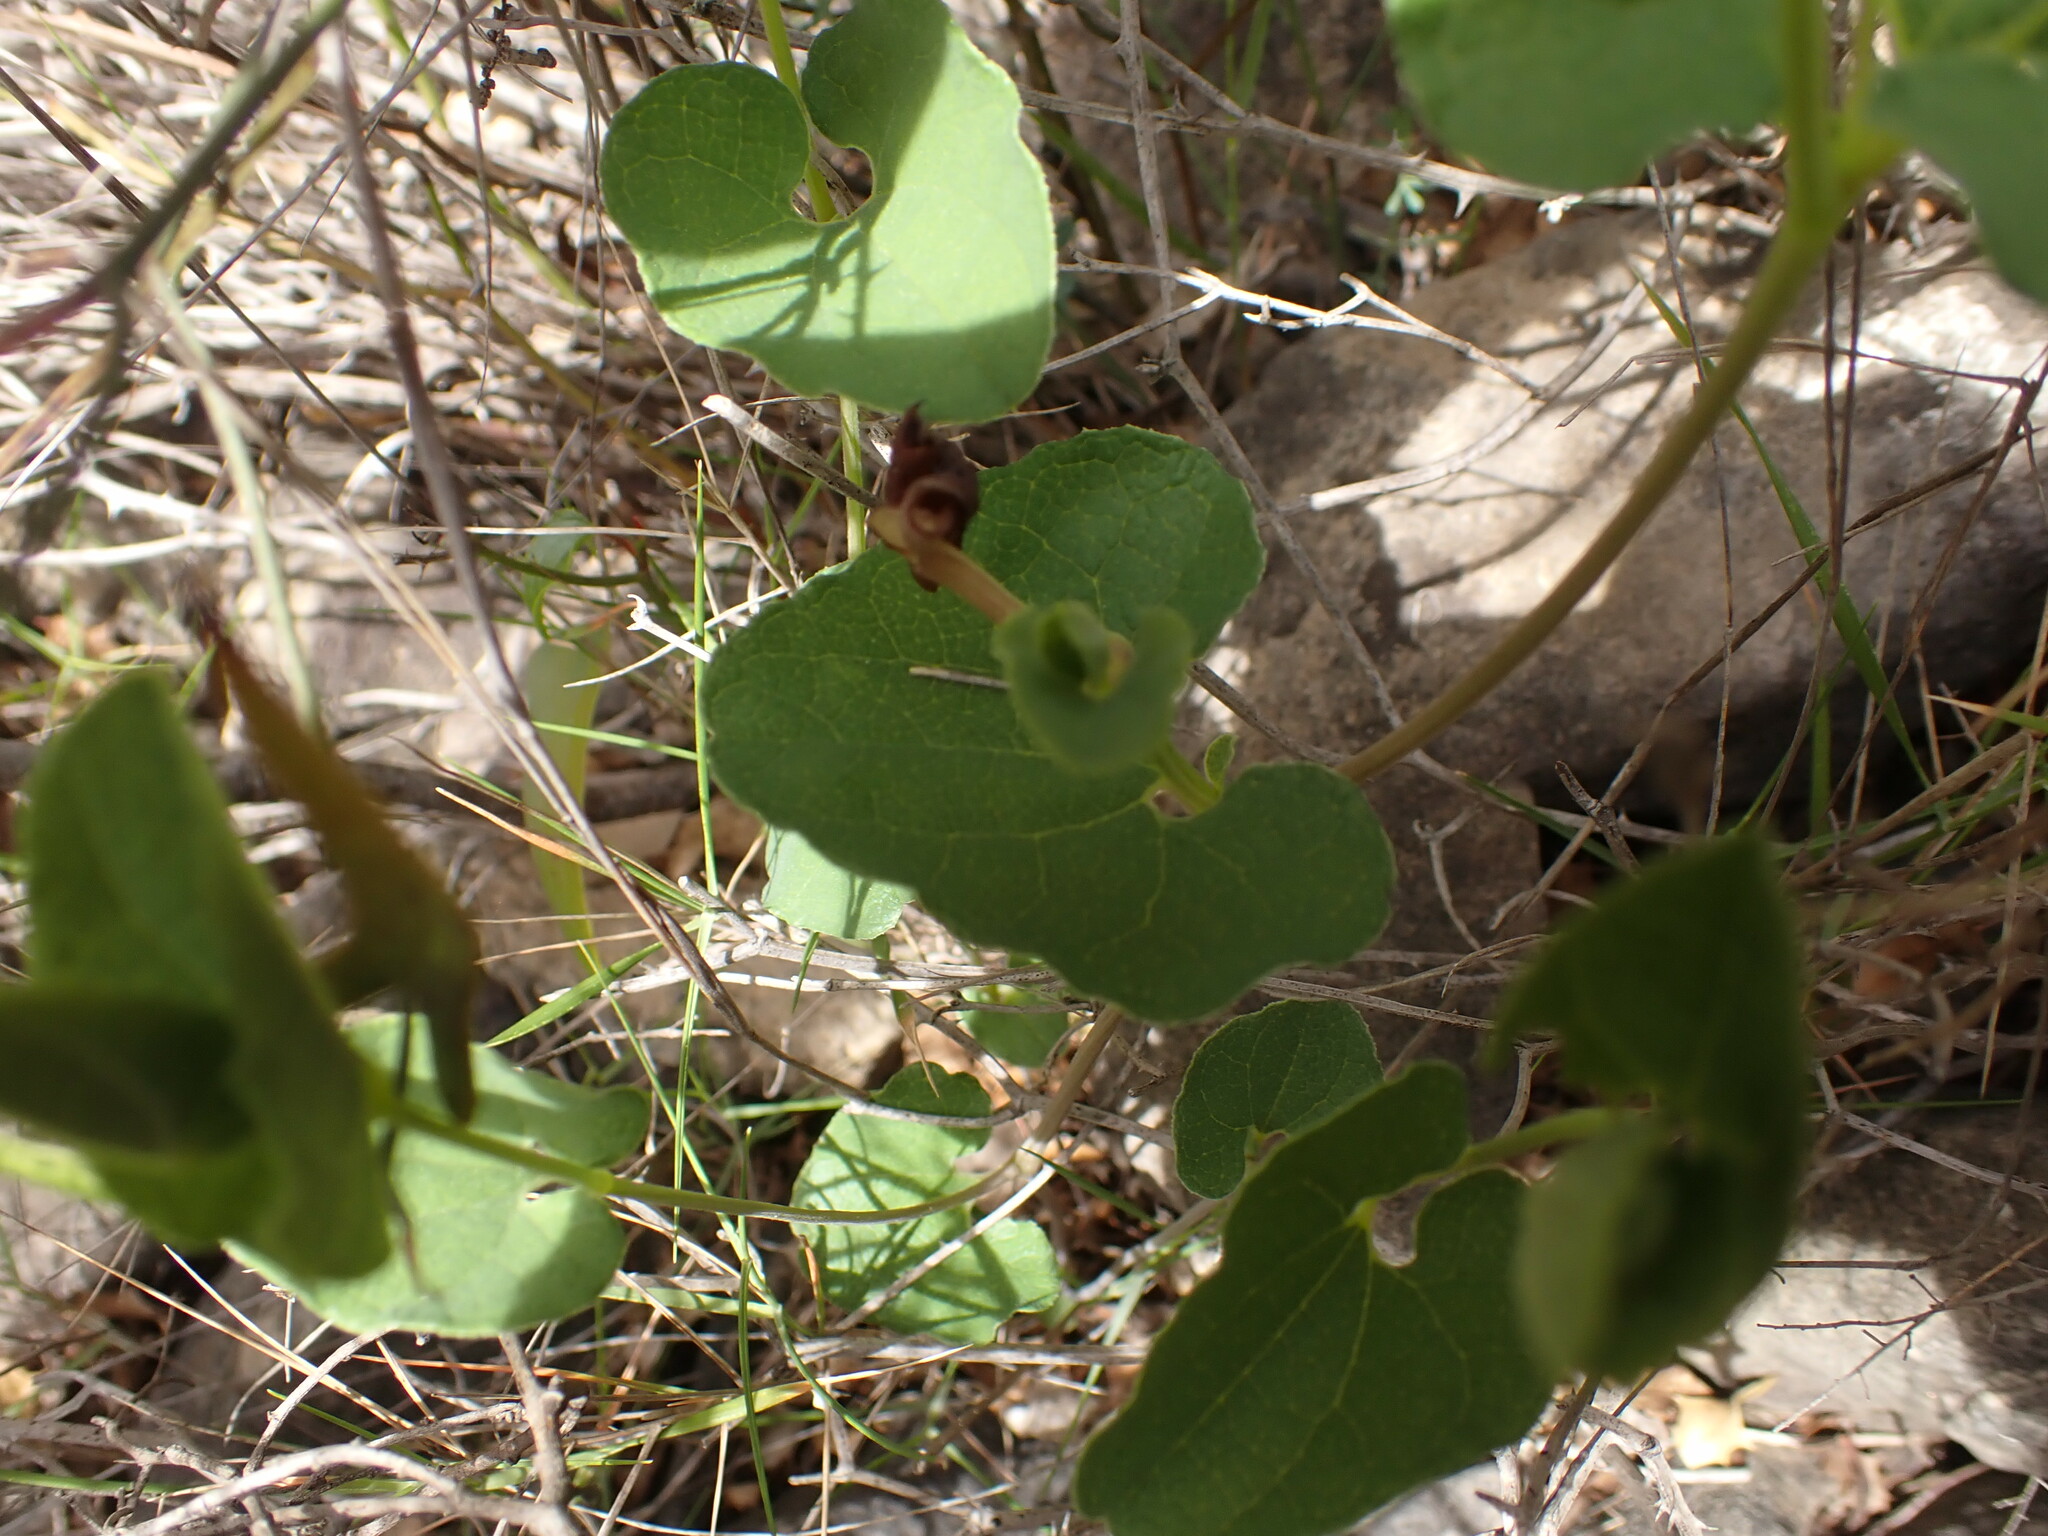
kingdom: Plantae
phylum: Tracheophyta
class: Magnoliopsida
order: Piperales
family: Aristolochiaceae
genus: Aristolochia
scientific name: Aristolochia pistolochia
